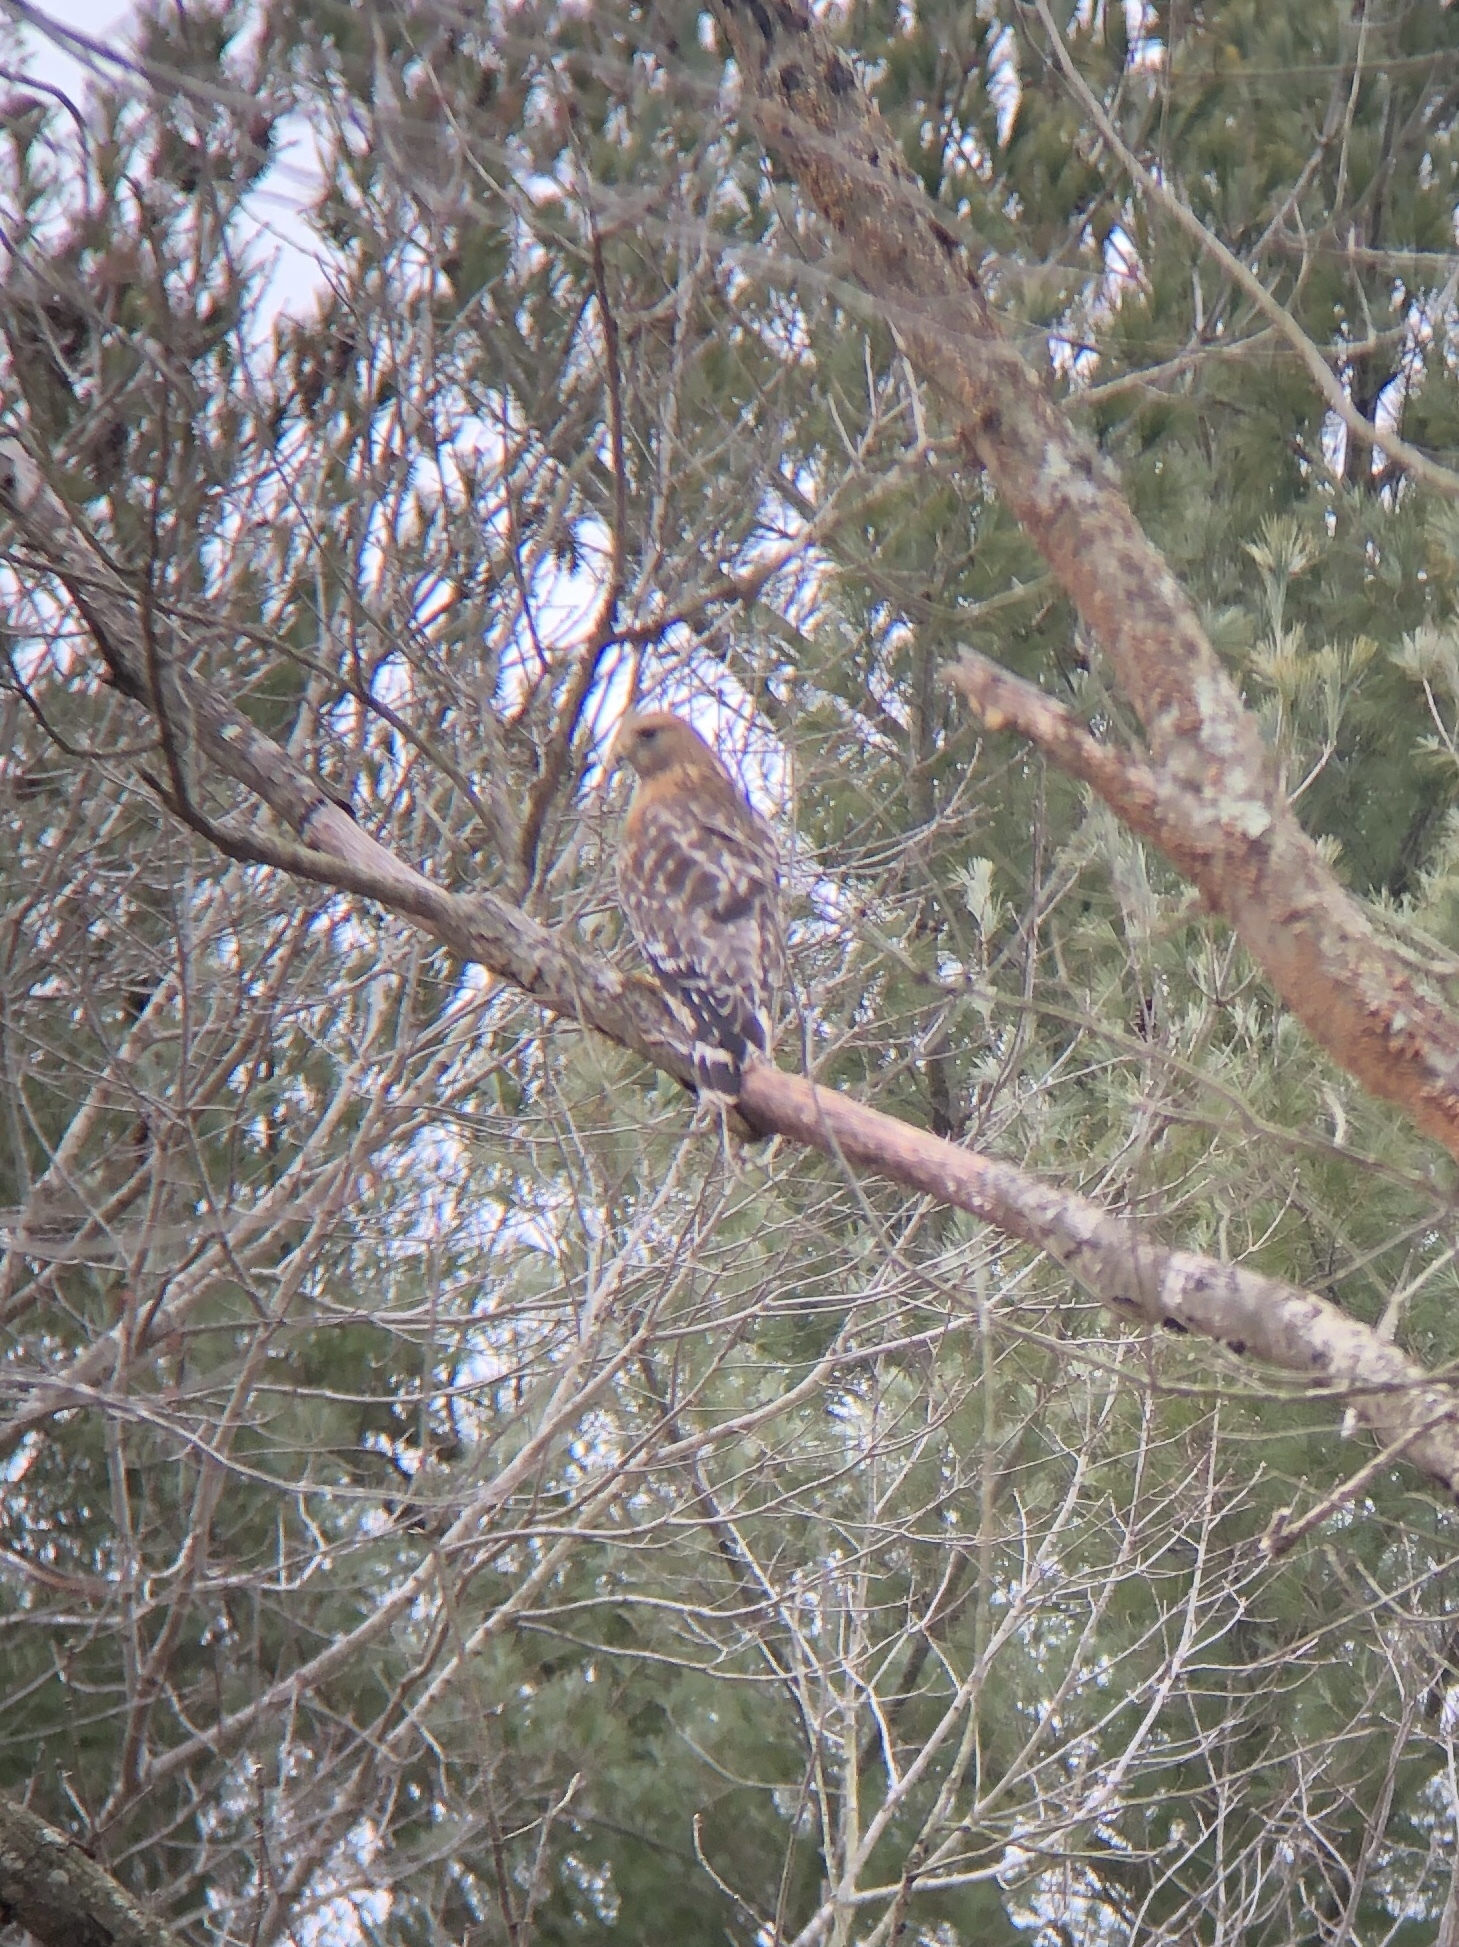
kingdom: Animalia
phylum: Chordata
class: Aves
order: Accipitriformes
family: Accipitridae
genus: Buteo
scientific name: Buteo lineatus
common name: Red-shouldered hawk
